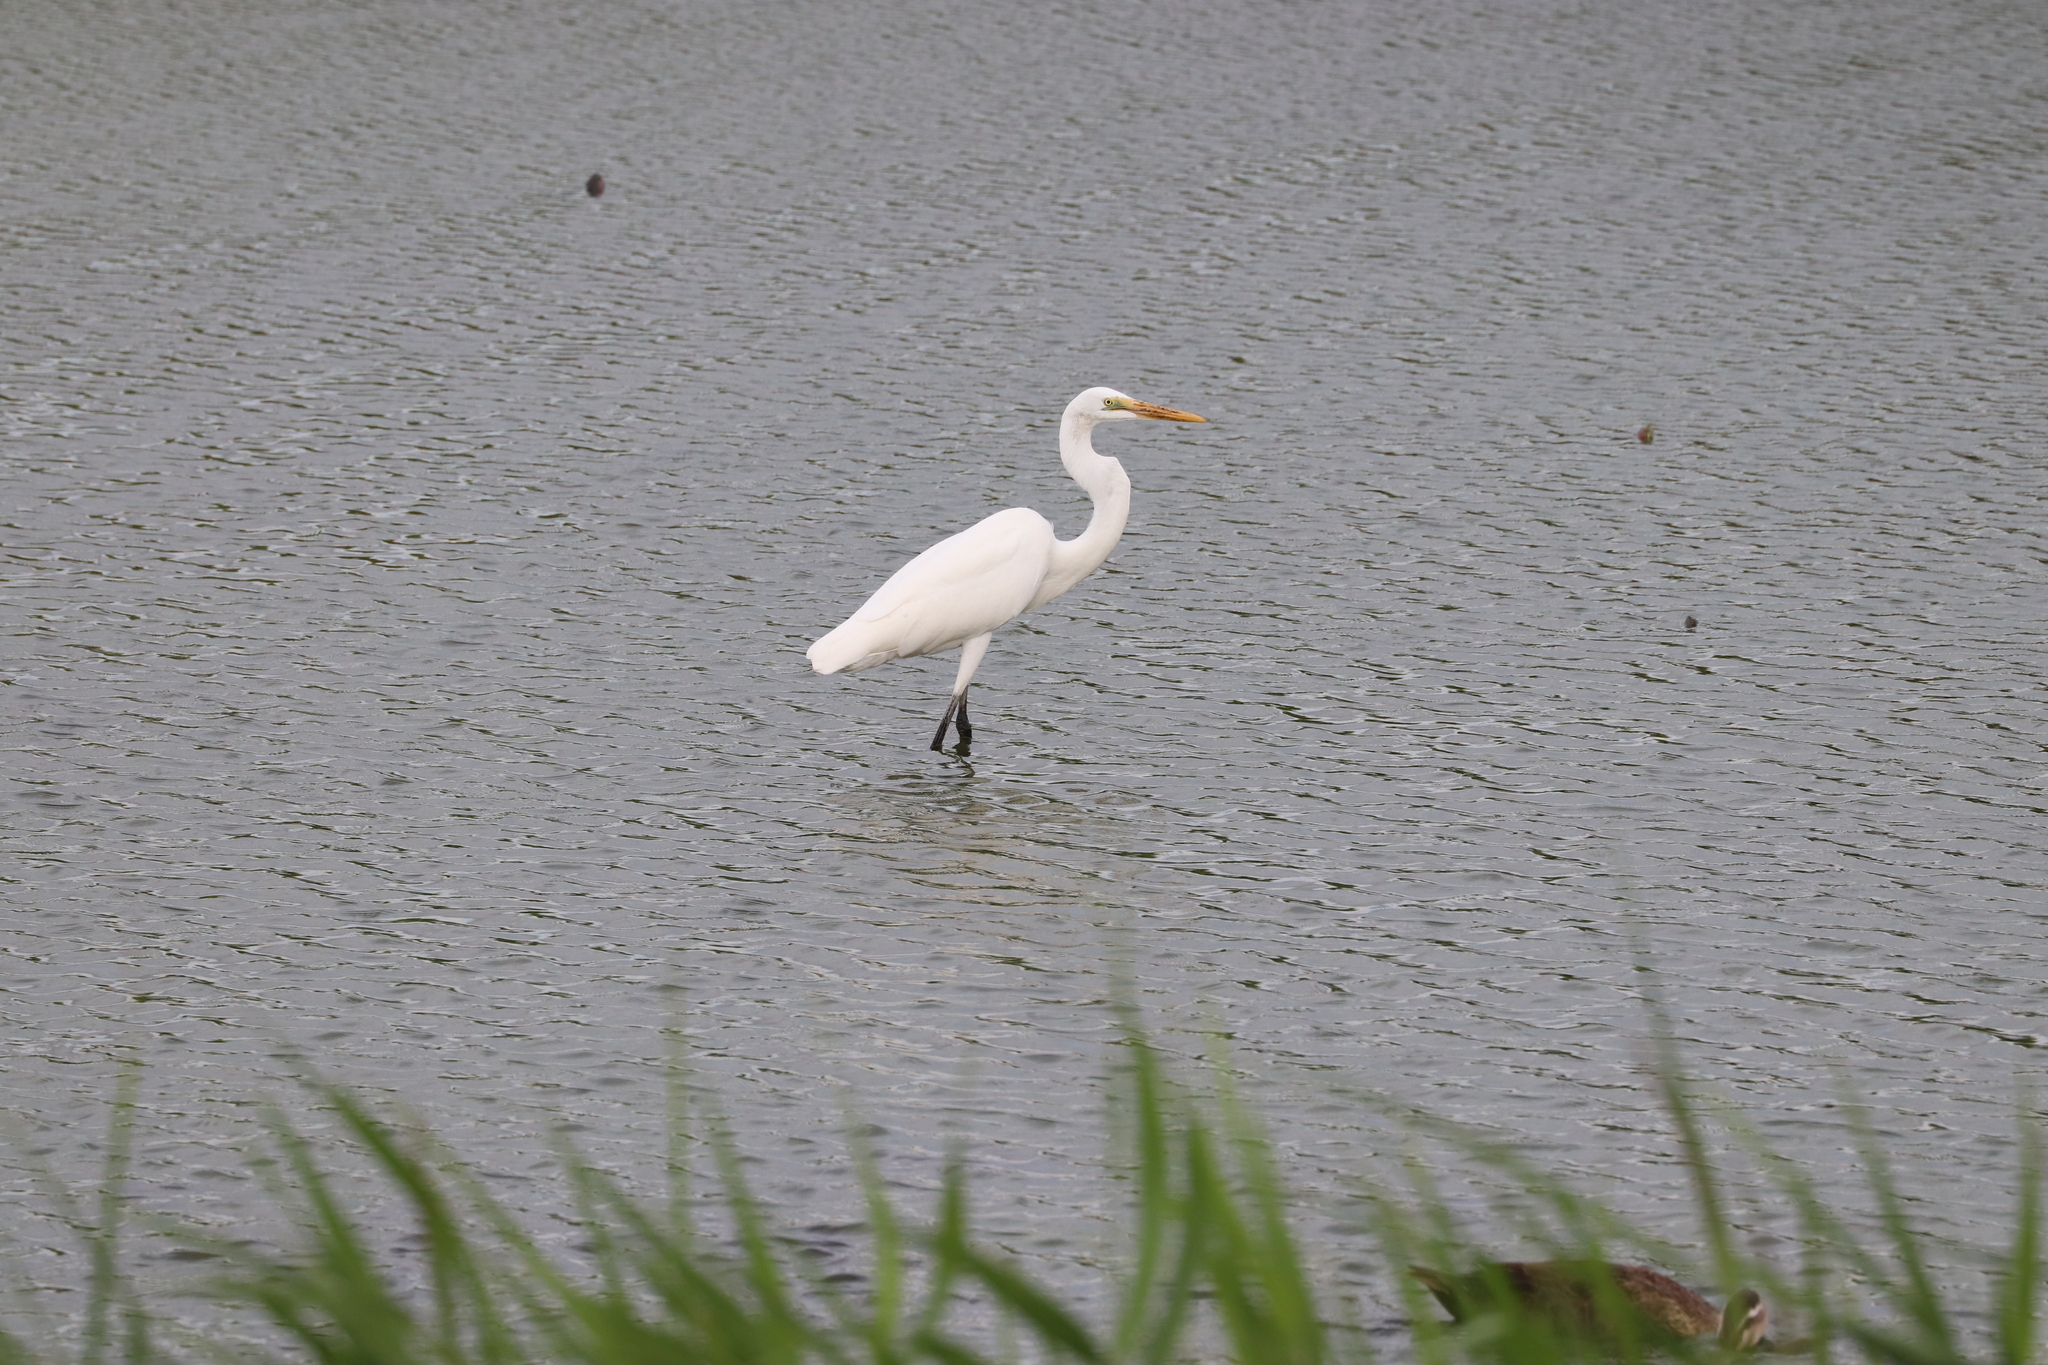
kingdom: Animalia
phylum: Chordata
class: Aves
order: Pelecaniformes
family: Ardeidae
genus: Ardea
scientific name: Ardea alba
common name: Great egret
